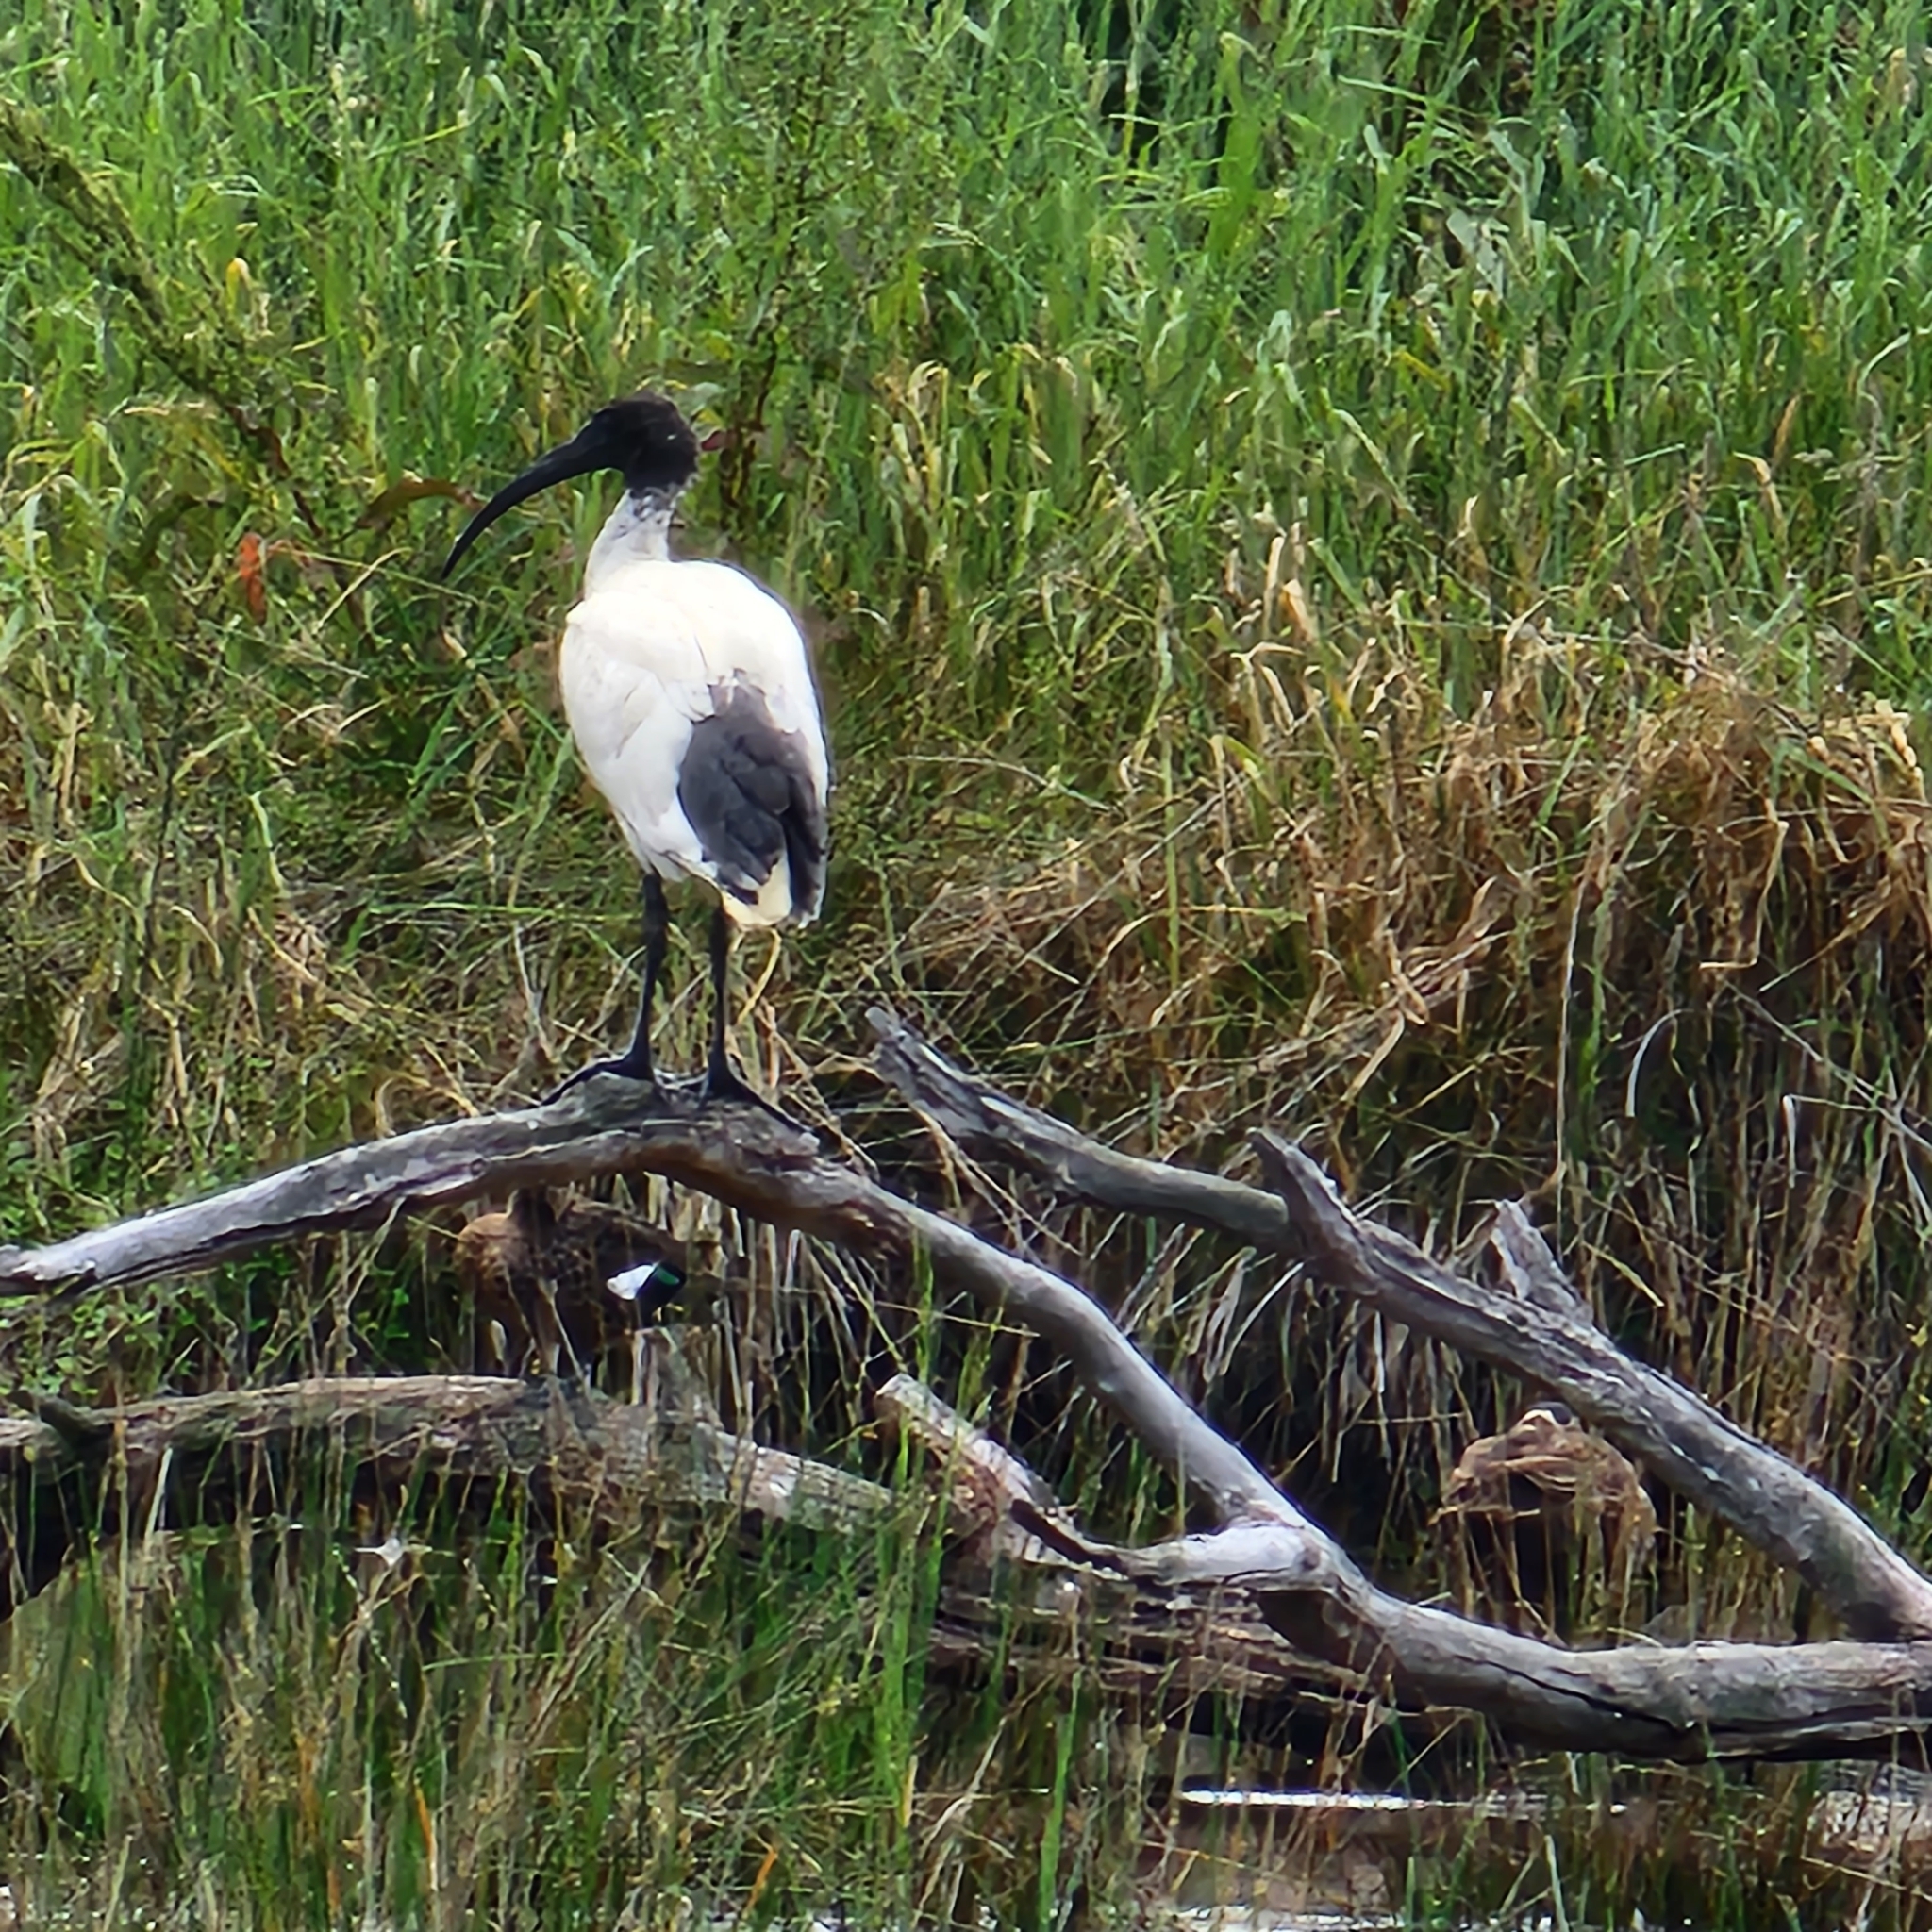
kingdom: Animalia
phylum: Chordata
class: Aves
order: Pelecaniformes
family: Threskiornithidae
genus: Threskiornis
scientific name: Threskiornis molucca
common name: Australian white ibis
